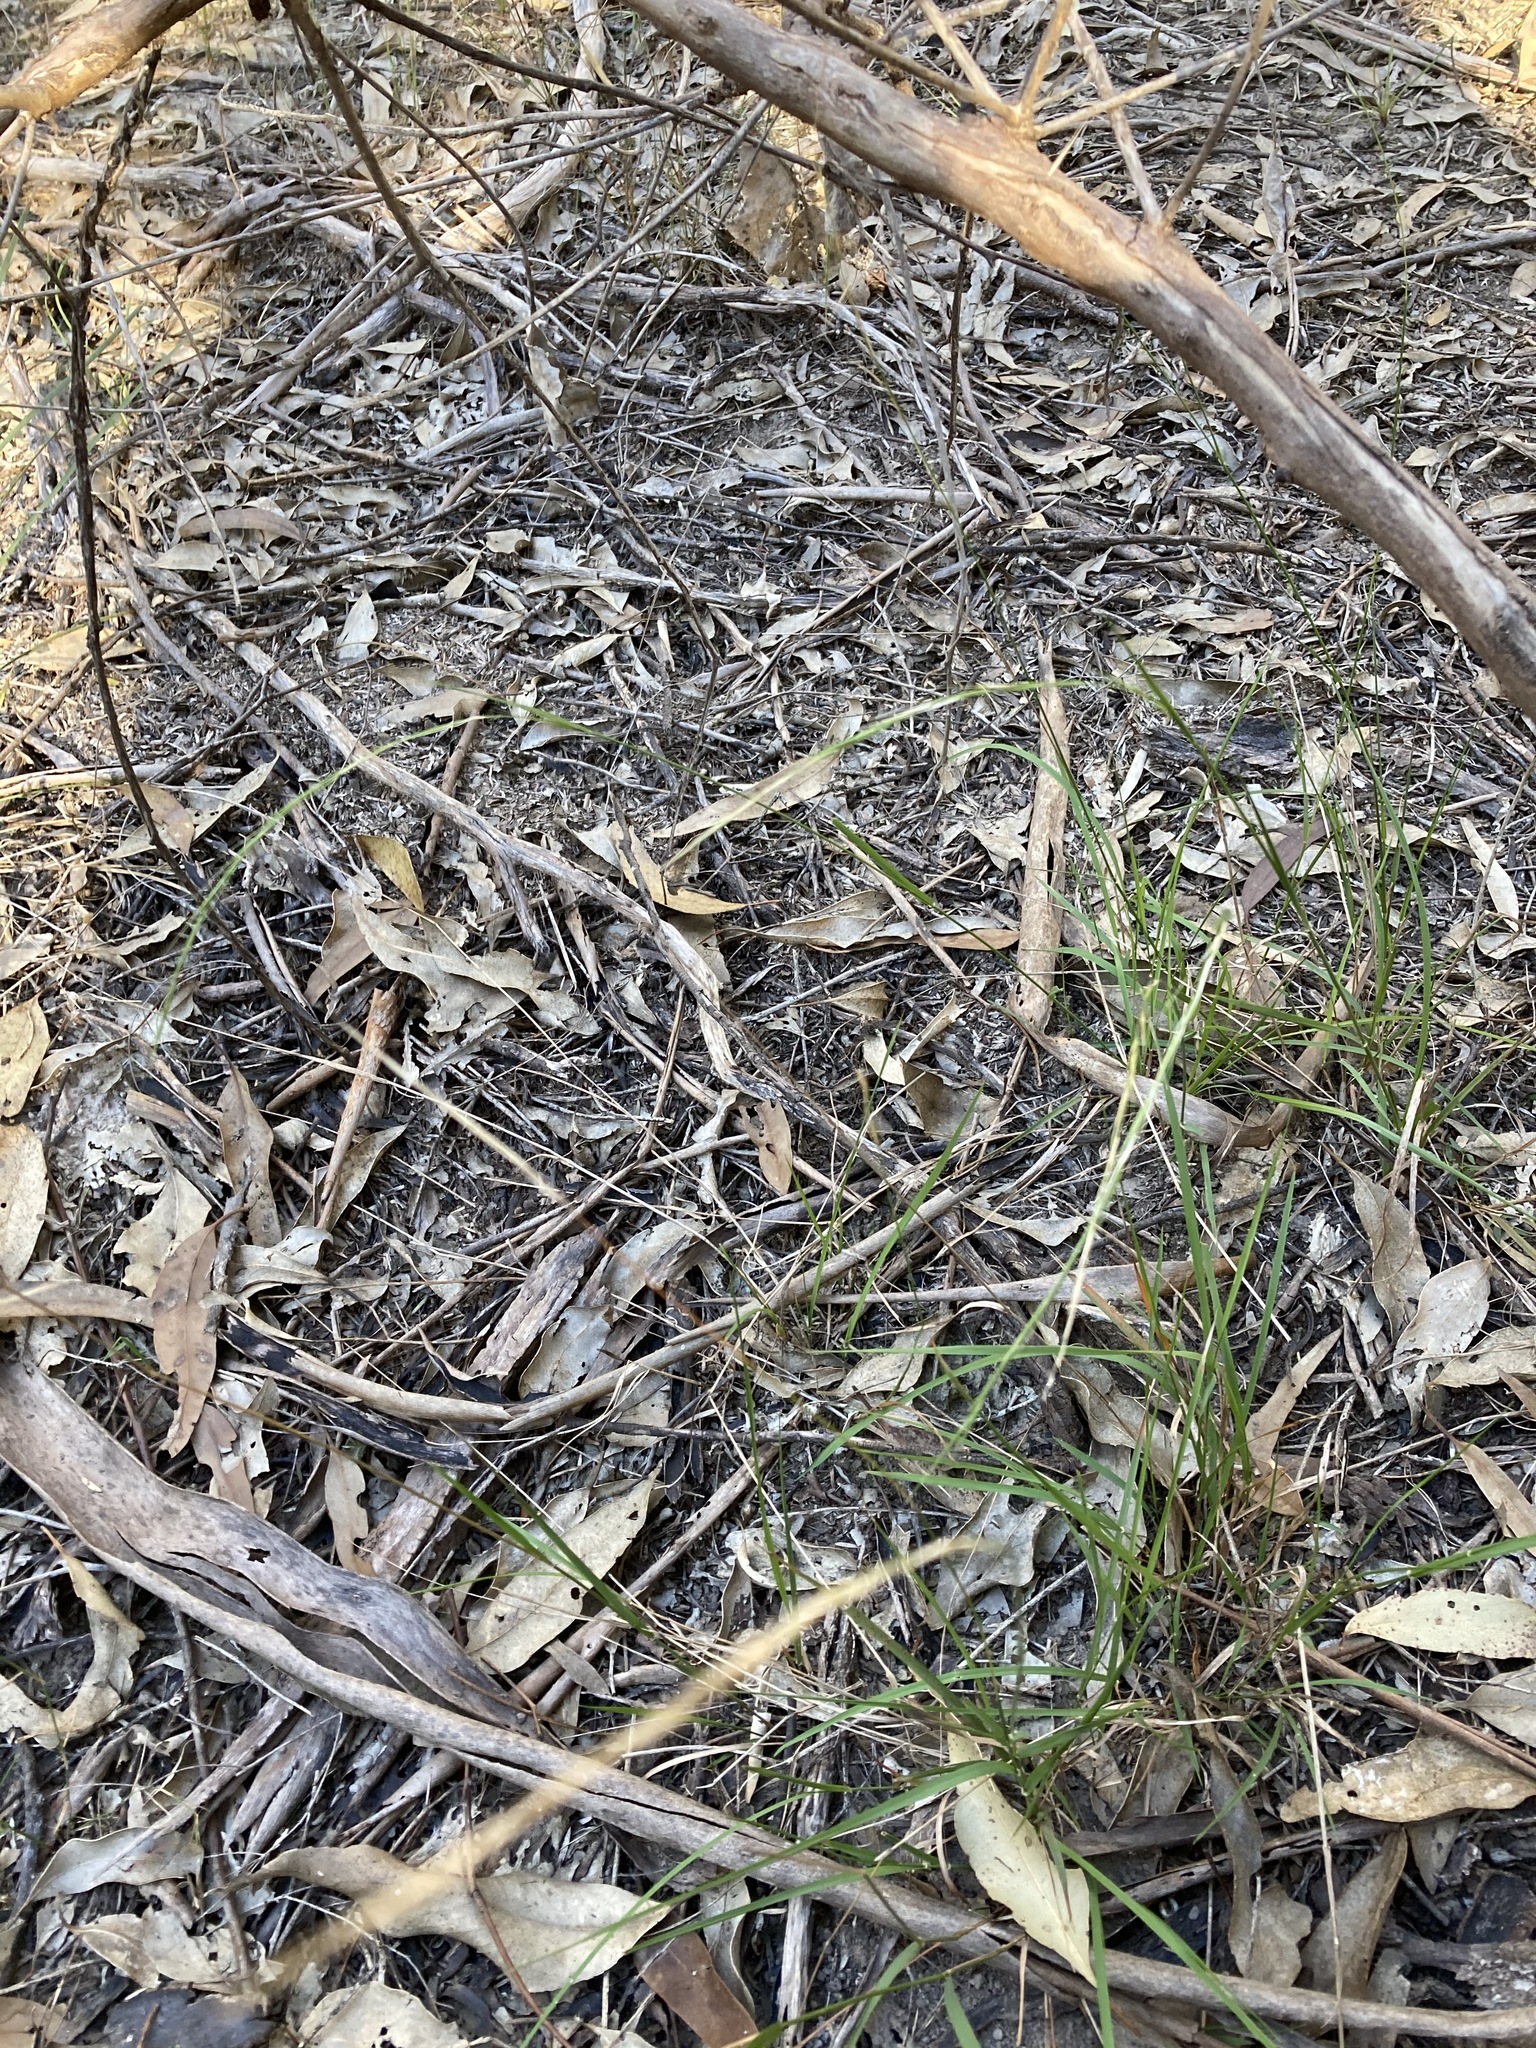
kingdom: Plantae
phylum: Tracheophyta
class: Liliopsida
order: Poales
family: Poaceae
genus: Microlaena
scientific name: Microlaena stipoides
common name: Meadow ricegrass
